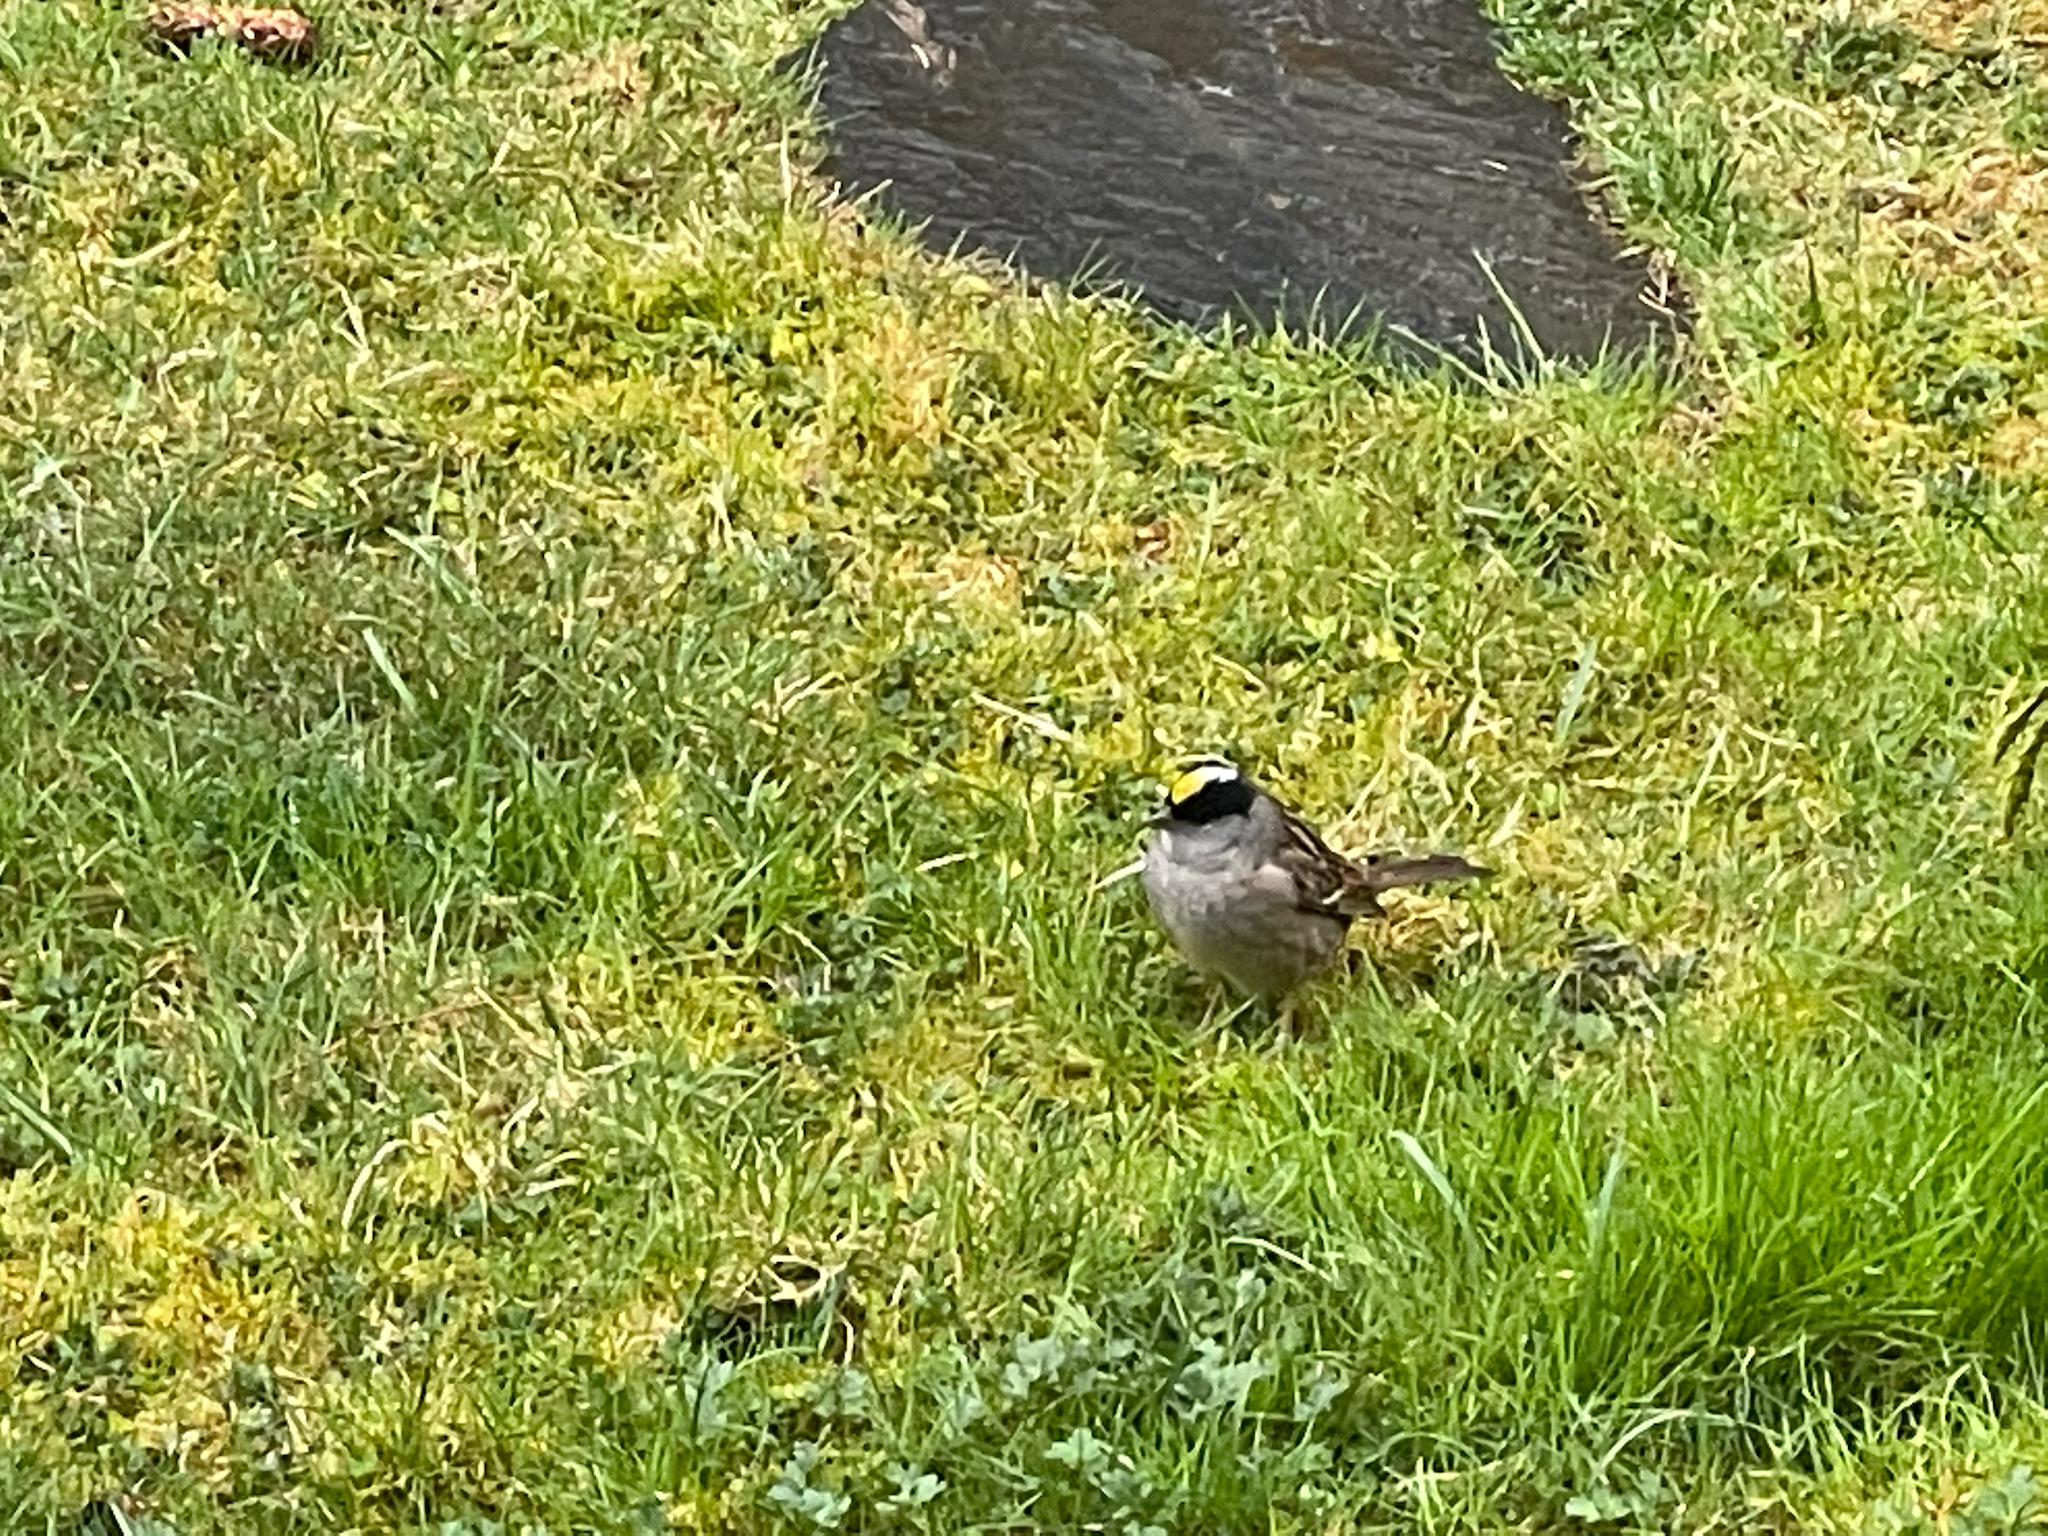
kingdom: Animalia
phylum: Chordata
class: Aves
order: Passeriformes
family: Passerellidae
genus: Zonotrichia
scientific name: Zonotrichia atricapilla
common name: Golden-crowned sparrow
